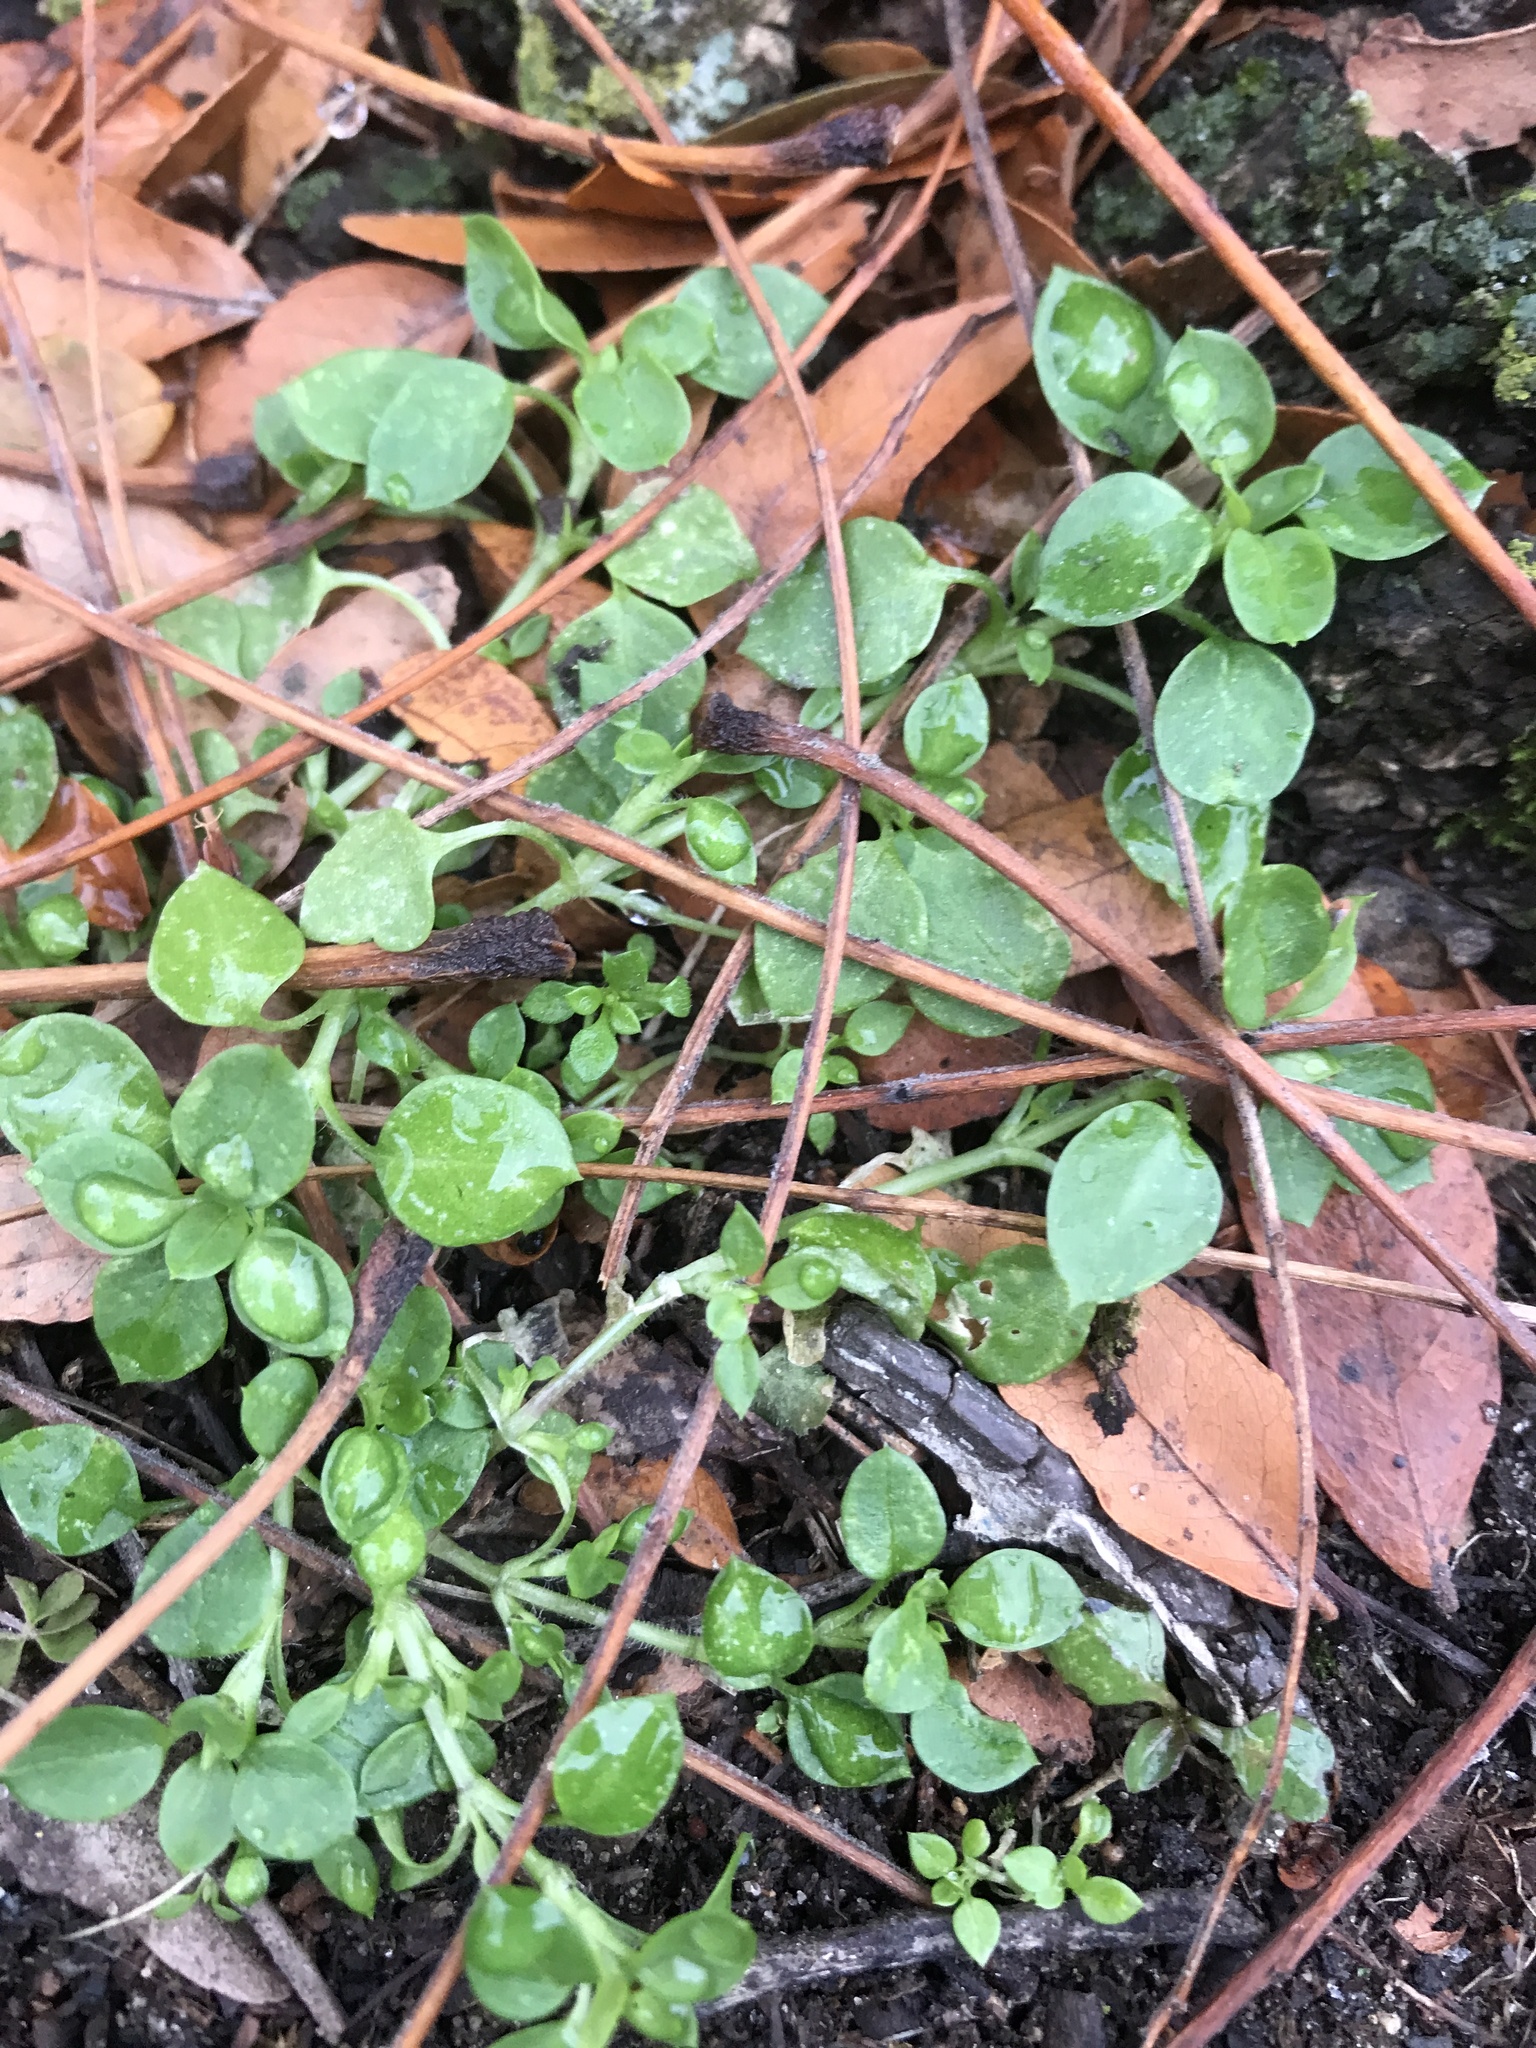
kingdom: Plantae
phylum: Tracheophyta
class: Magnoliopsida
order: Caryophyllales
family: Caryophyllaceae
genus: Stellaria
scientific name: Stellaria media
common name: Common chickweed
